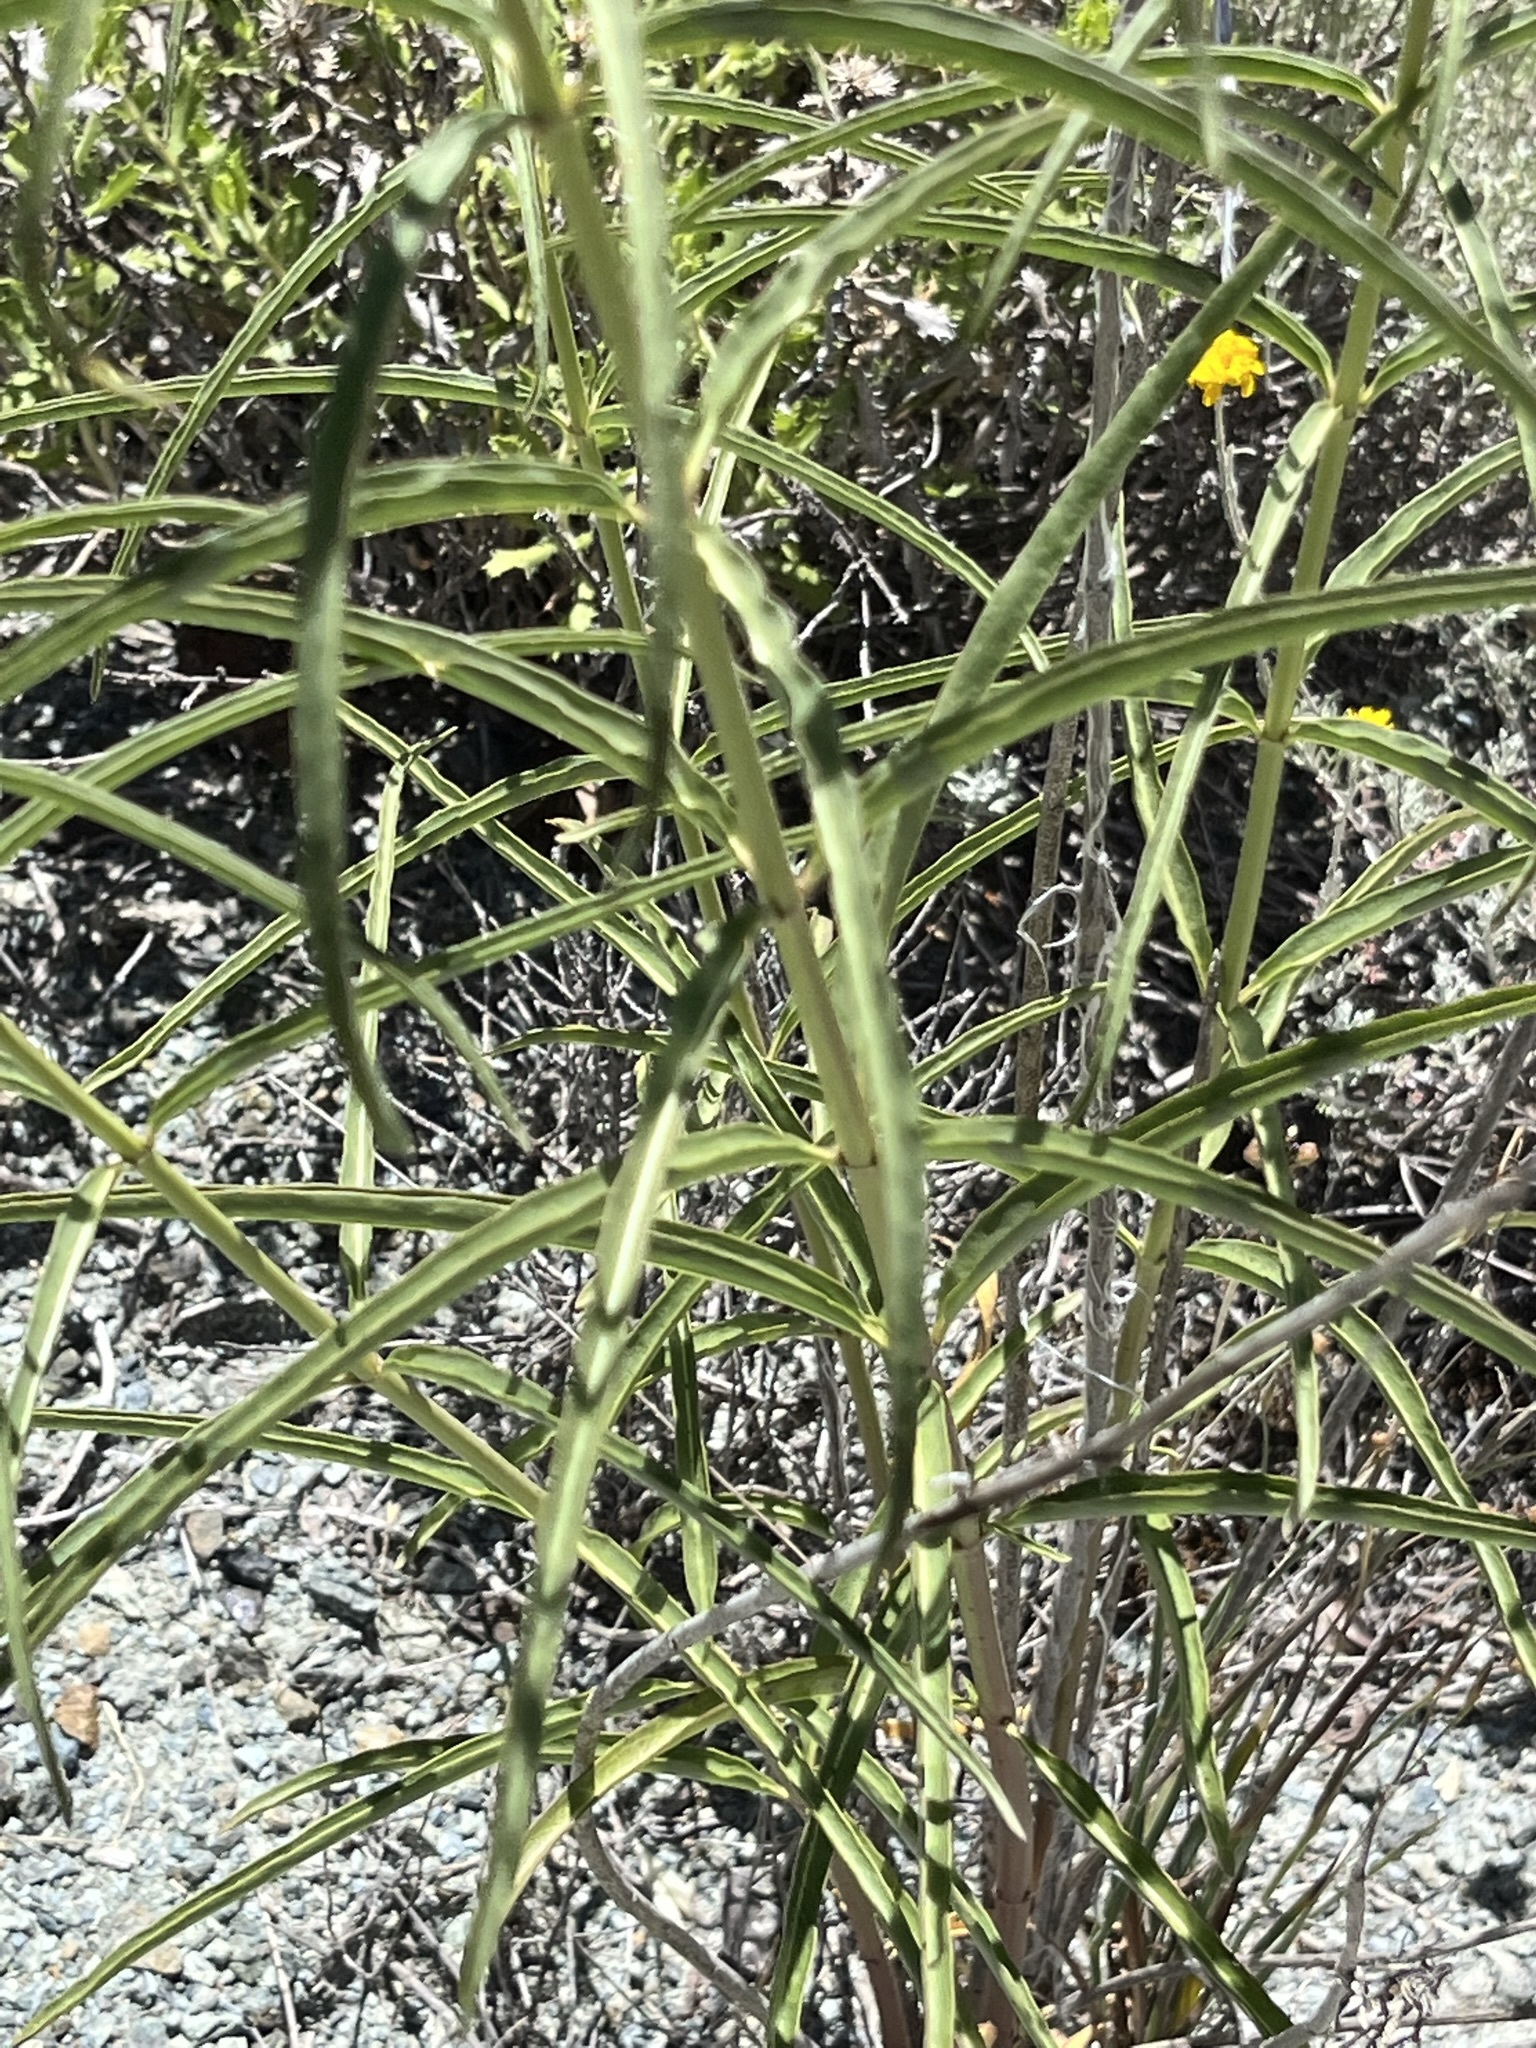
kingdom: Plantae
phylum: Tracheophyta
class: Magnoliopsida
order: Gentianales
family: Apocynaceae
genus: Asclepias
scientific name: Asclepias fascicularis
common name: Mexican milkweed
